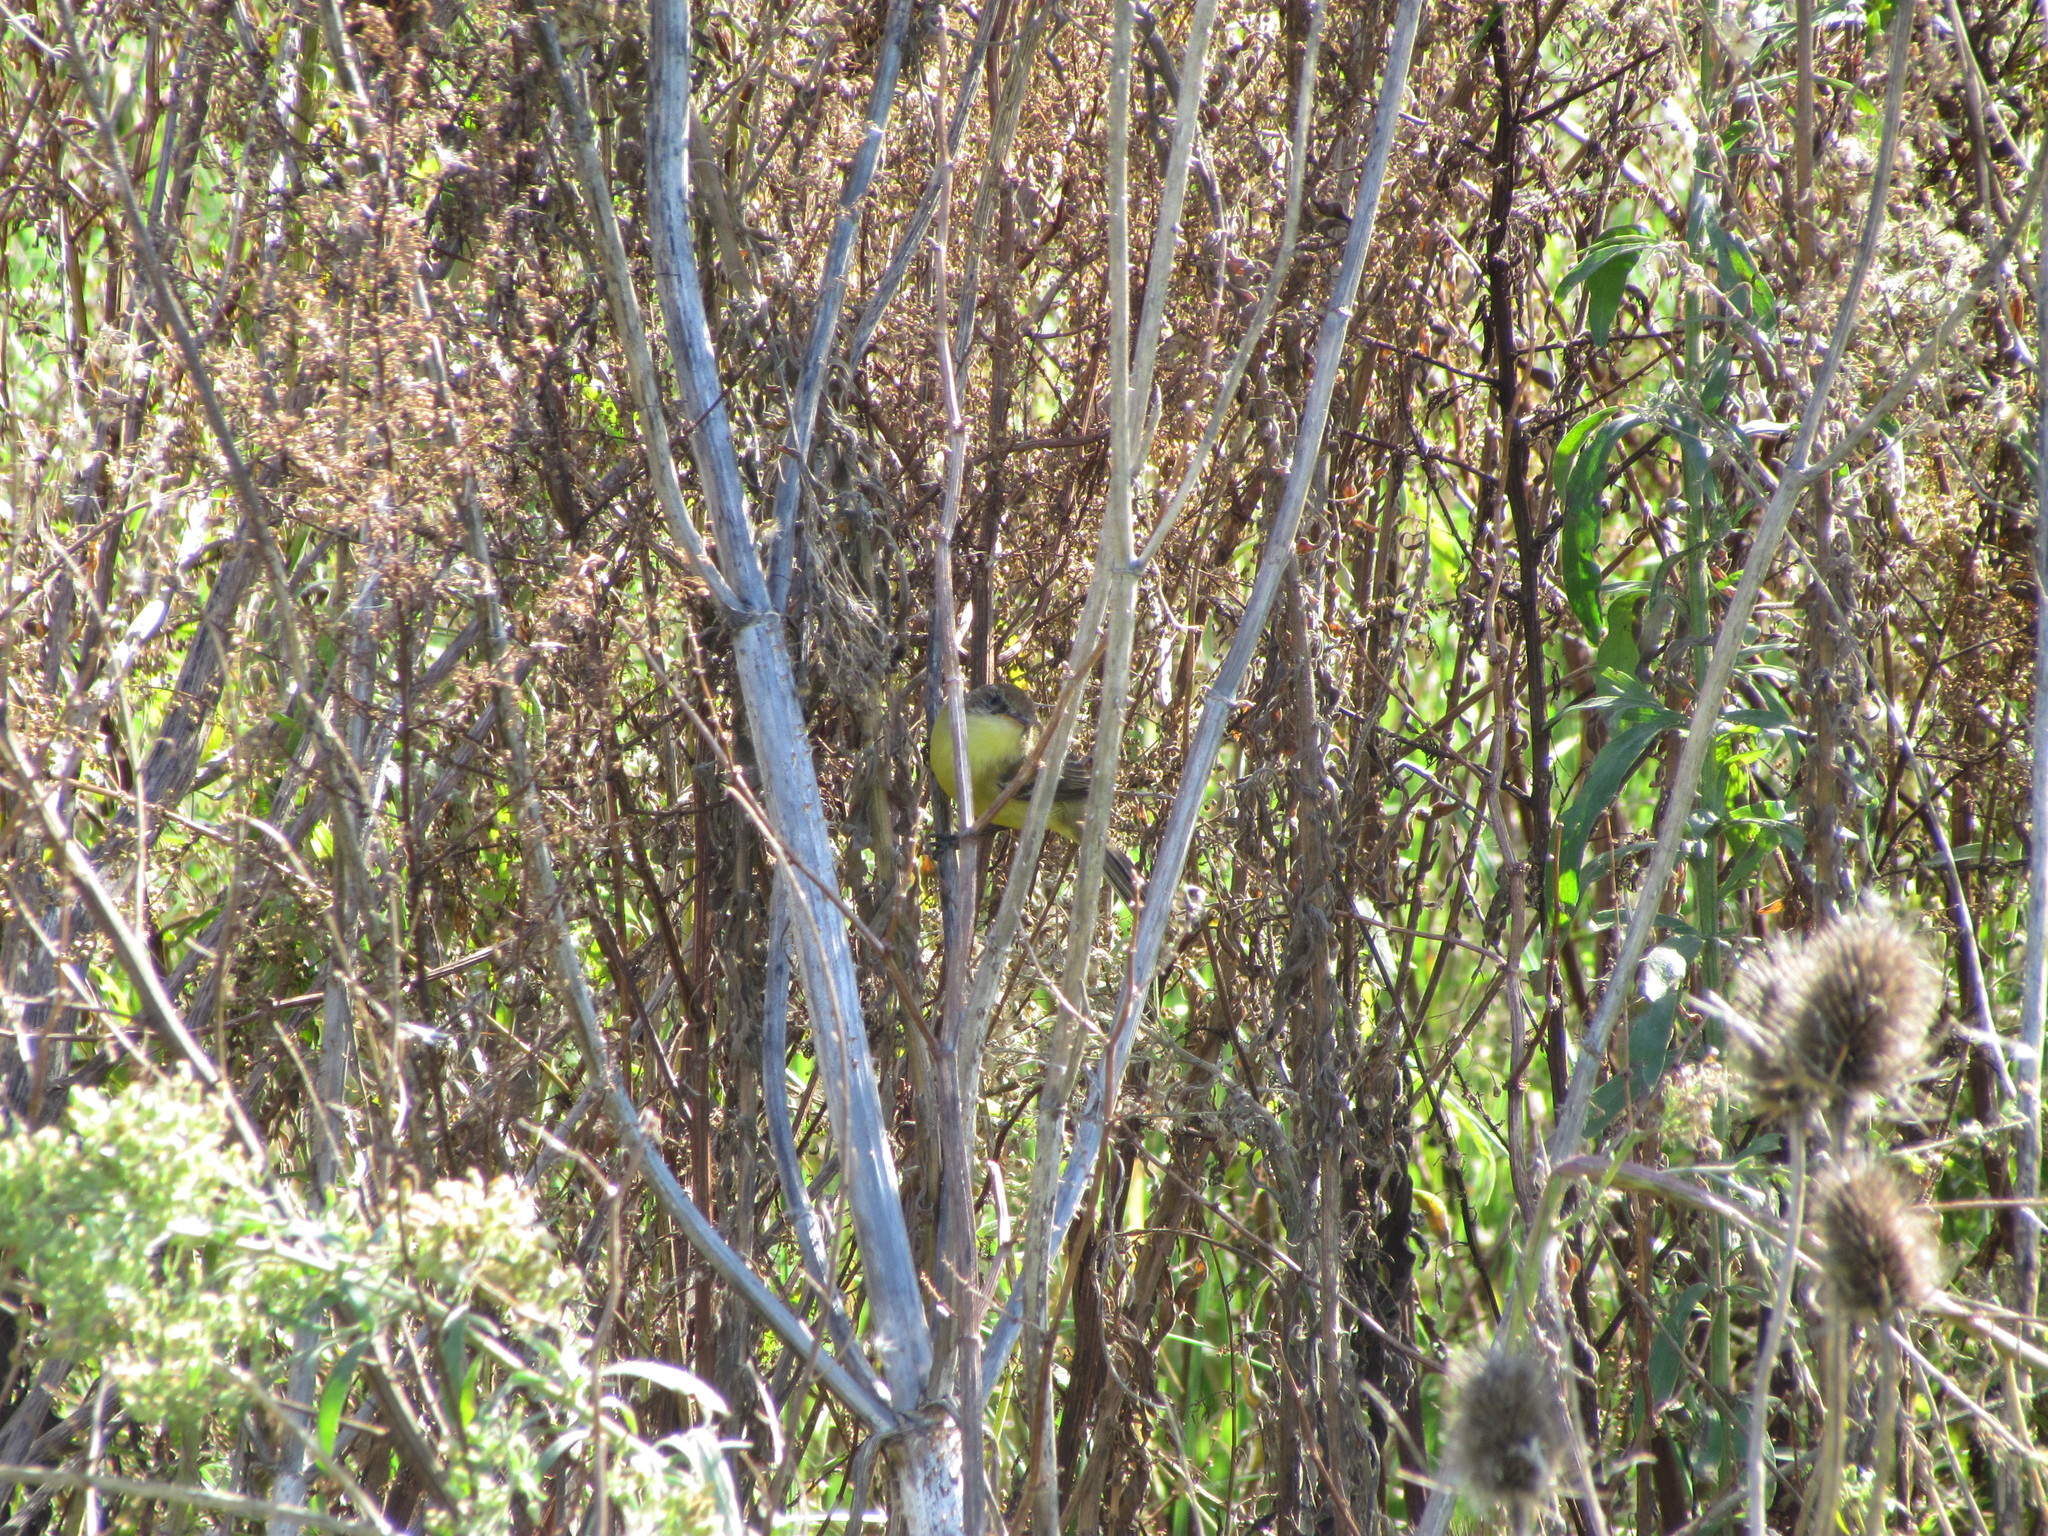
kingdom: Animalia
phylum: Chordata
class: Aves
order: Passeriformes
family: Tyrannidae
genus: Pseudocolopteryx
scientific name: Pseudocolopteryx flaviventris
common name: Warbling doradito
